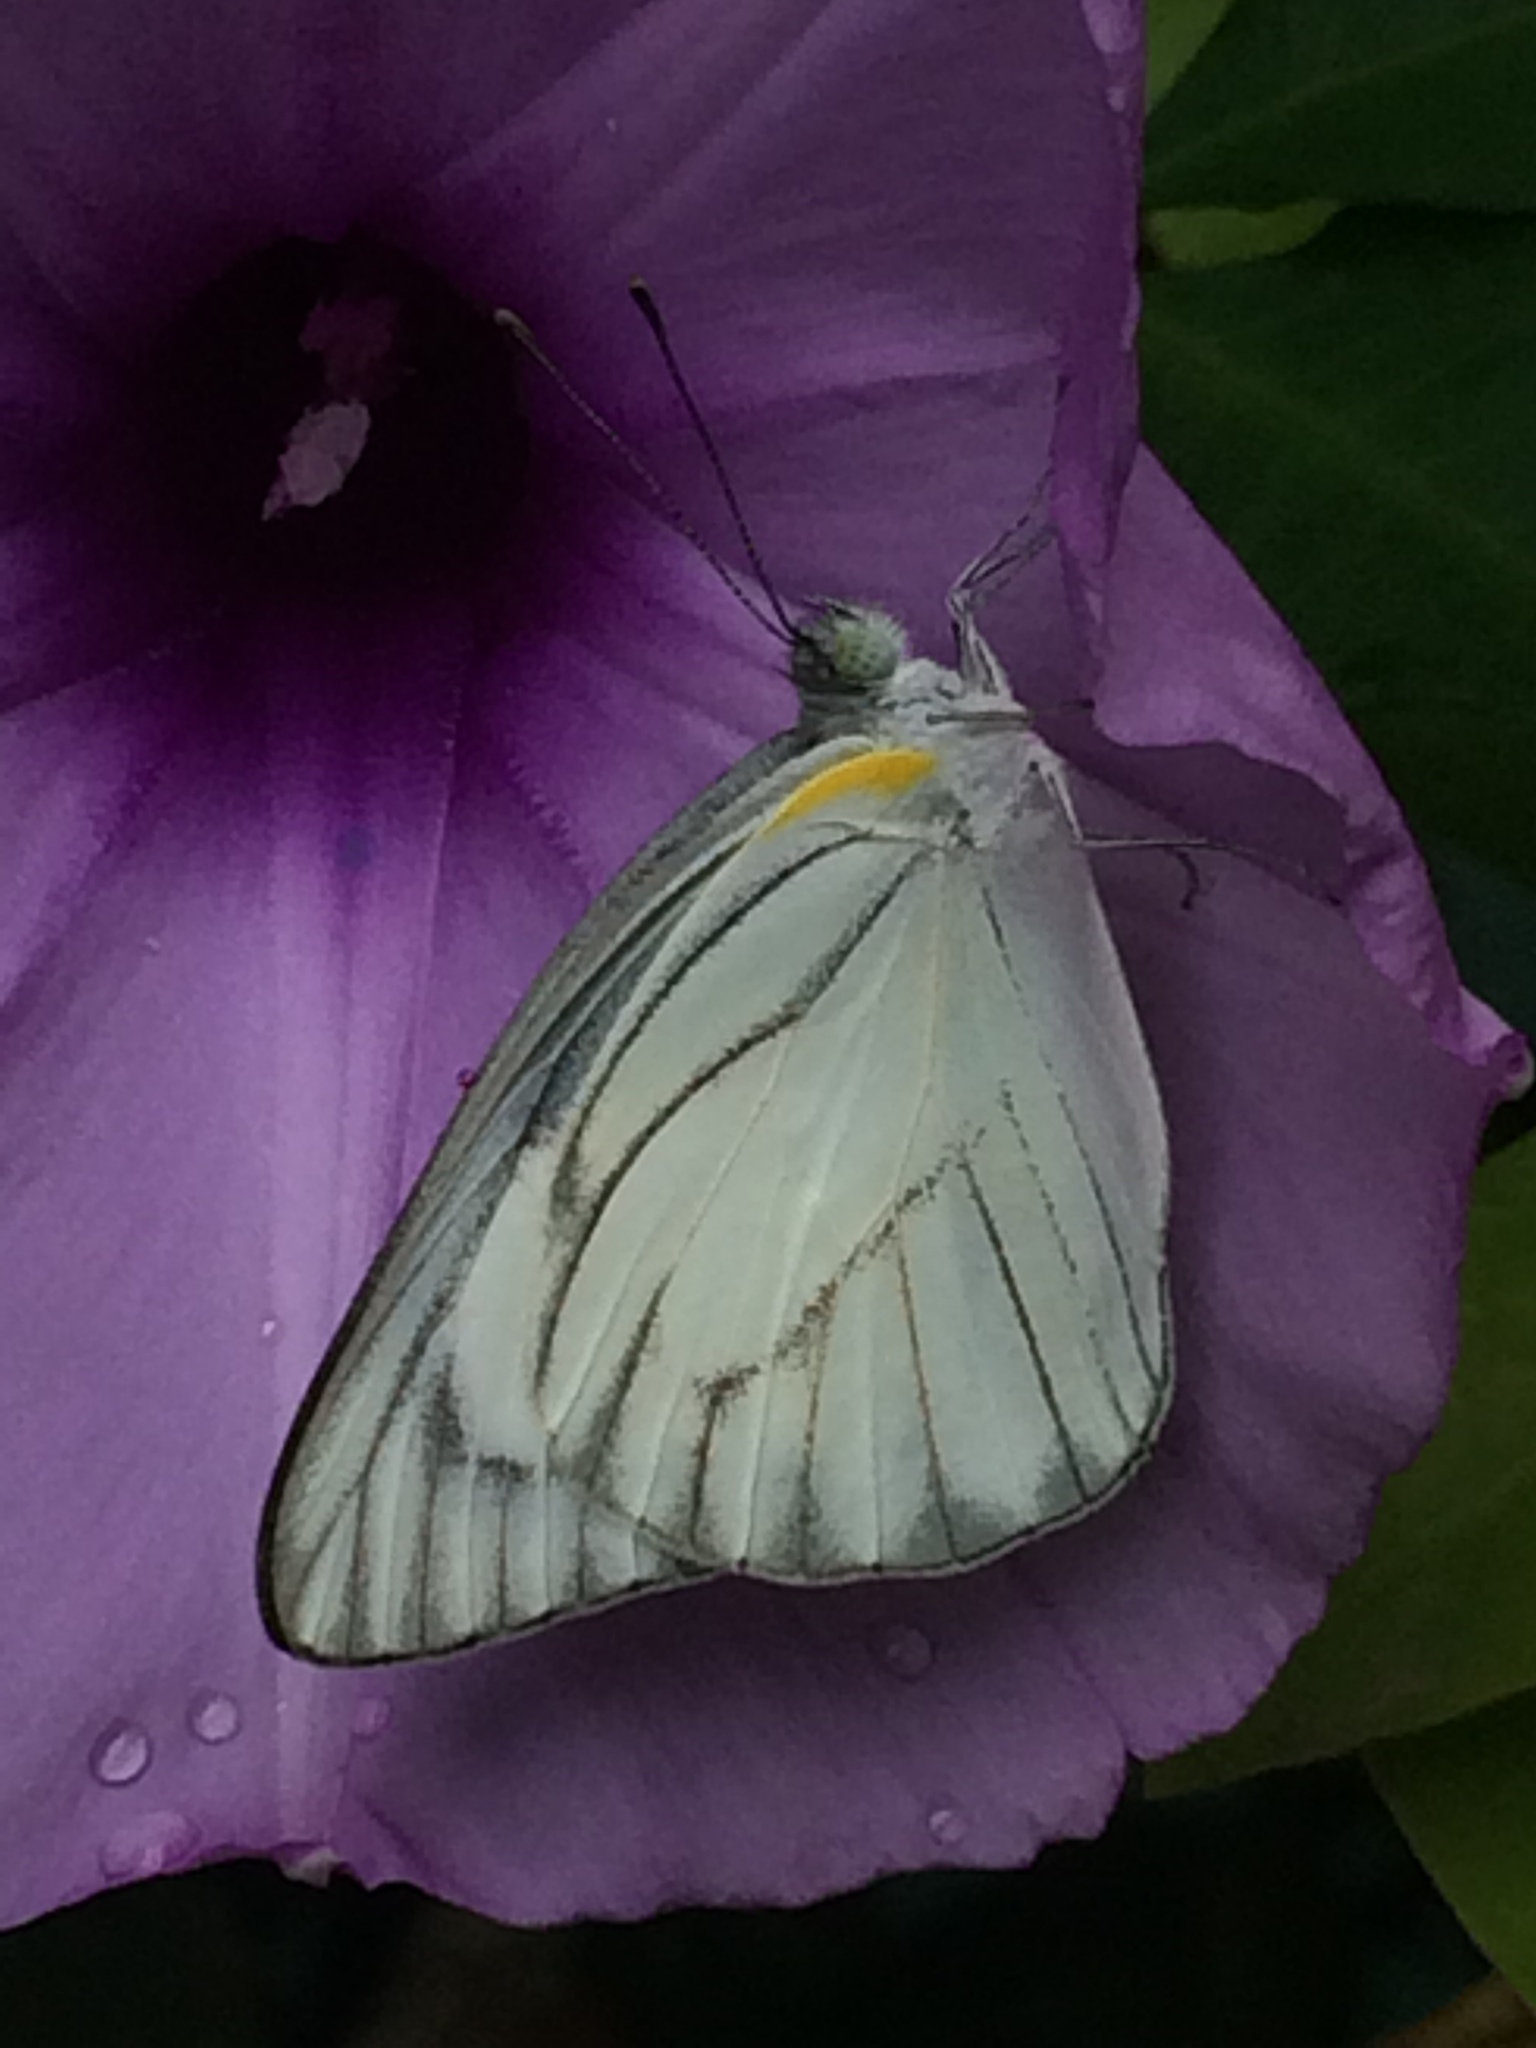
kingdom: Animalia
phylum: Arthropoda
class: Insecta
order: Lepidoptera
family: Pieridae
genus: Appias
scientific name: Appias libythea
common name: Striped albatross
